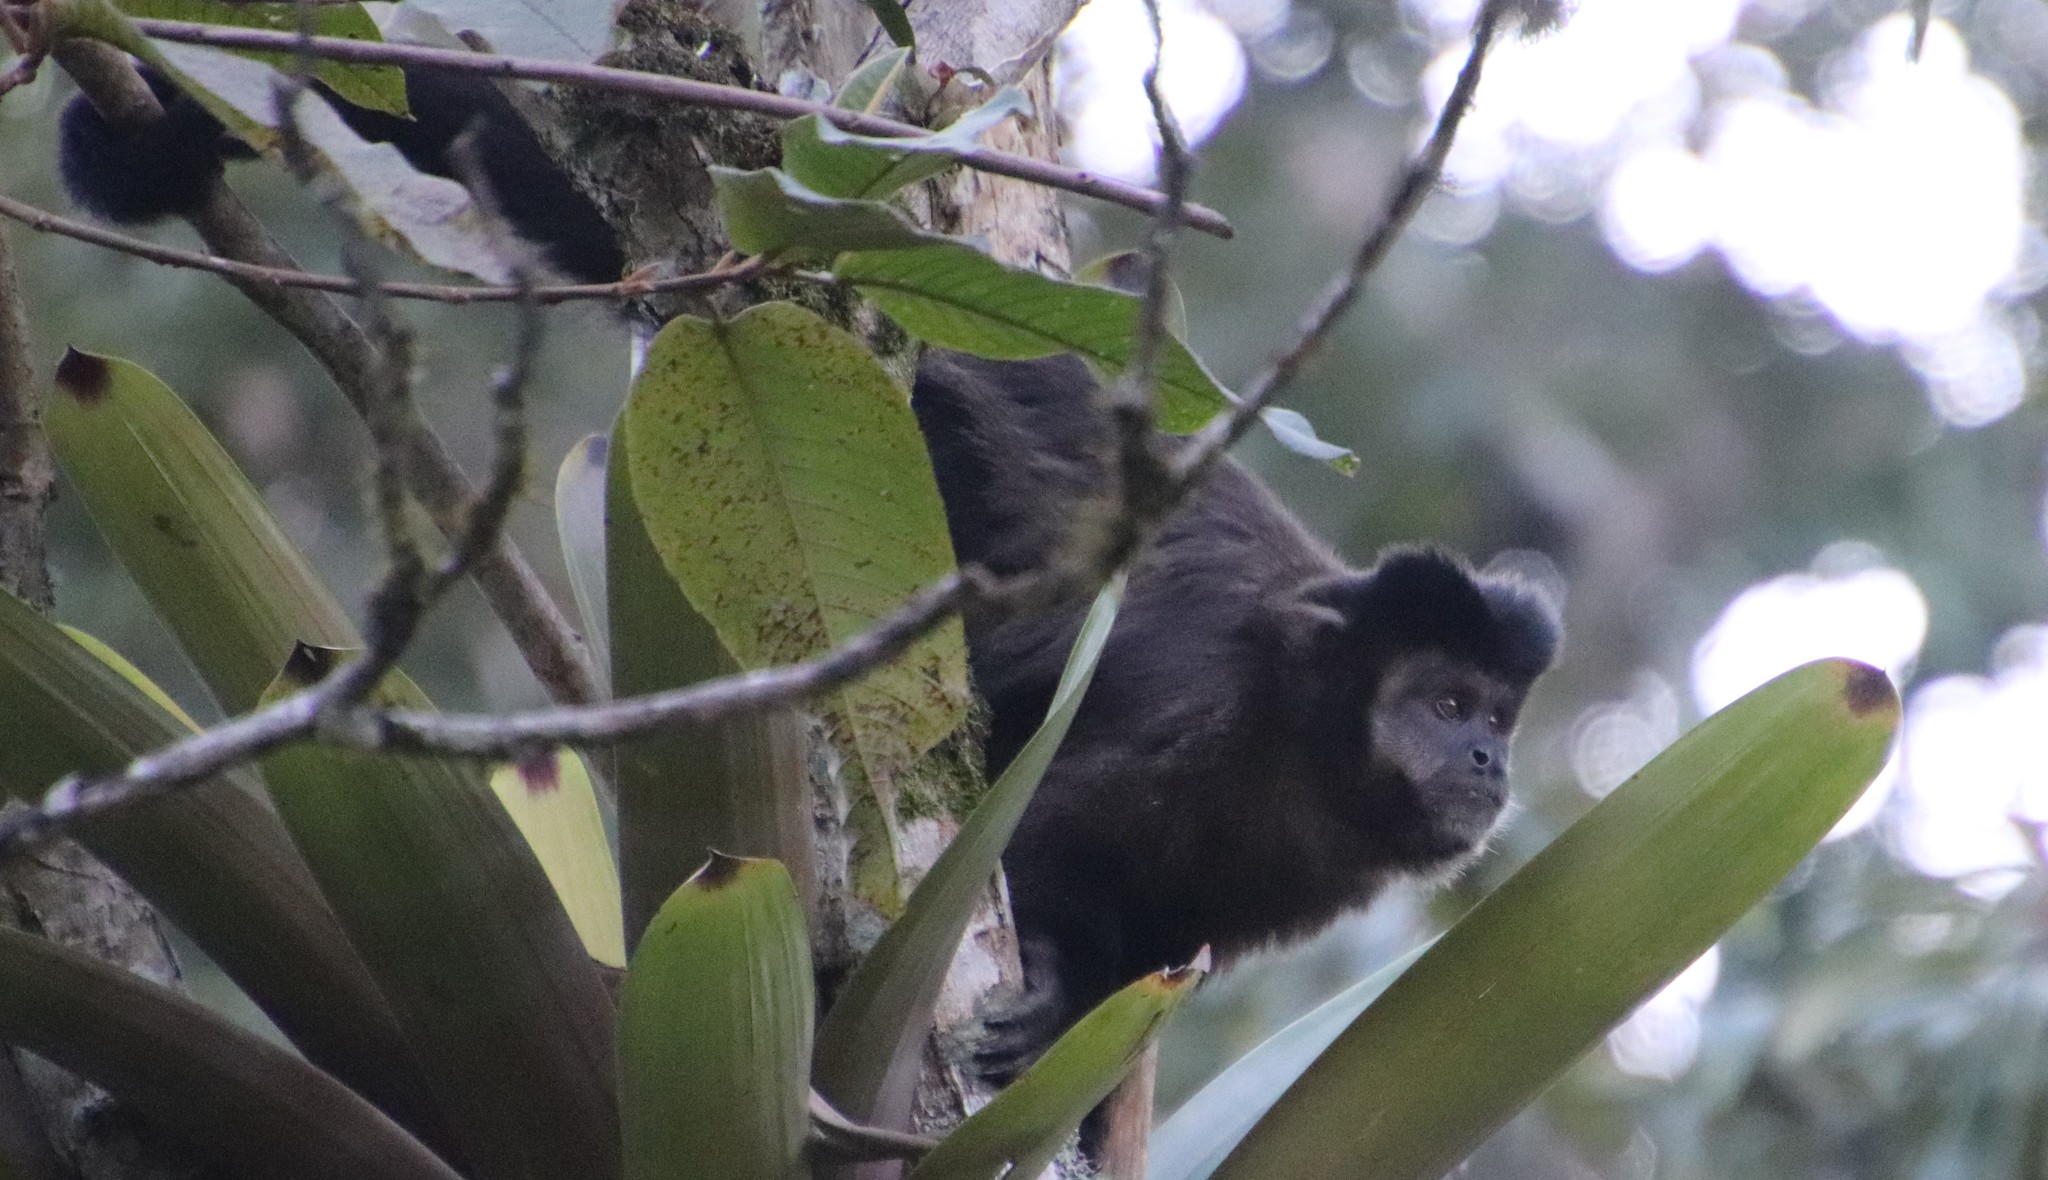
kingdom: Animalia
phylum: Chordata
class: Mammalia
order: Primates
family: Cebidae
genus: Sapajus
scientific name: Sapajus nigritus
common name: Black capuchin
